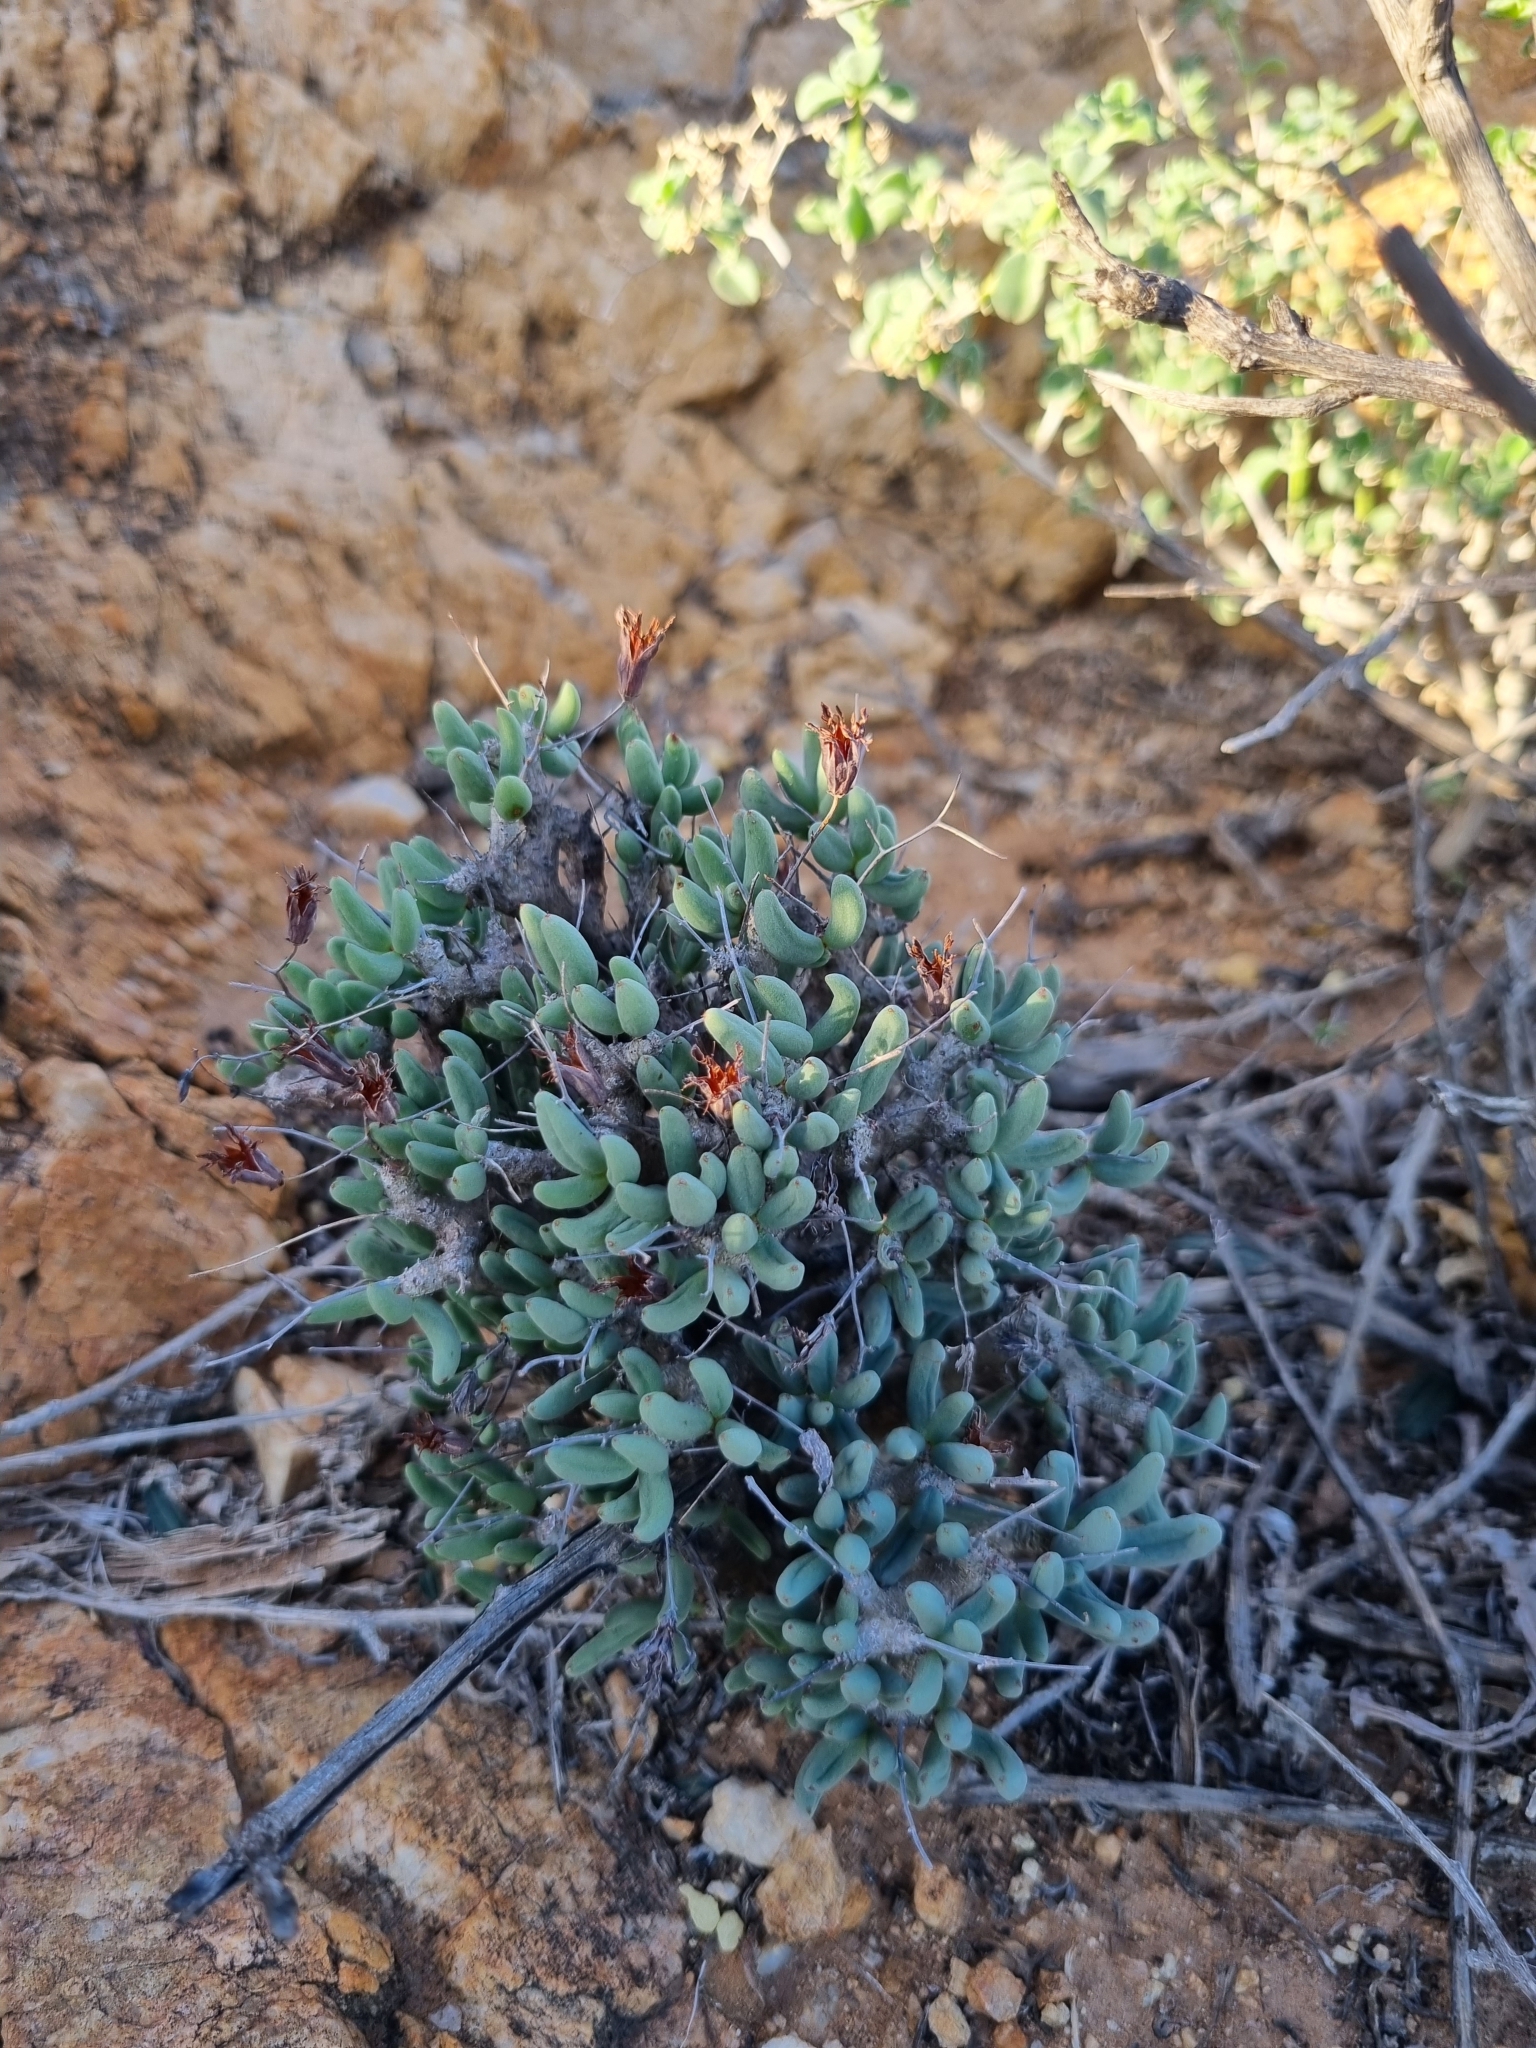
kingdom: Plantae
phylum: Tracheophyta
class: Magnoliopsida
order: Saxifragales
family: Crassulaceae
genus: Tylecodon
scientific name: Tylecodon reticulatus
